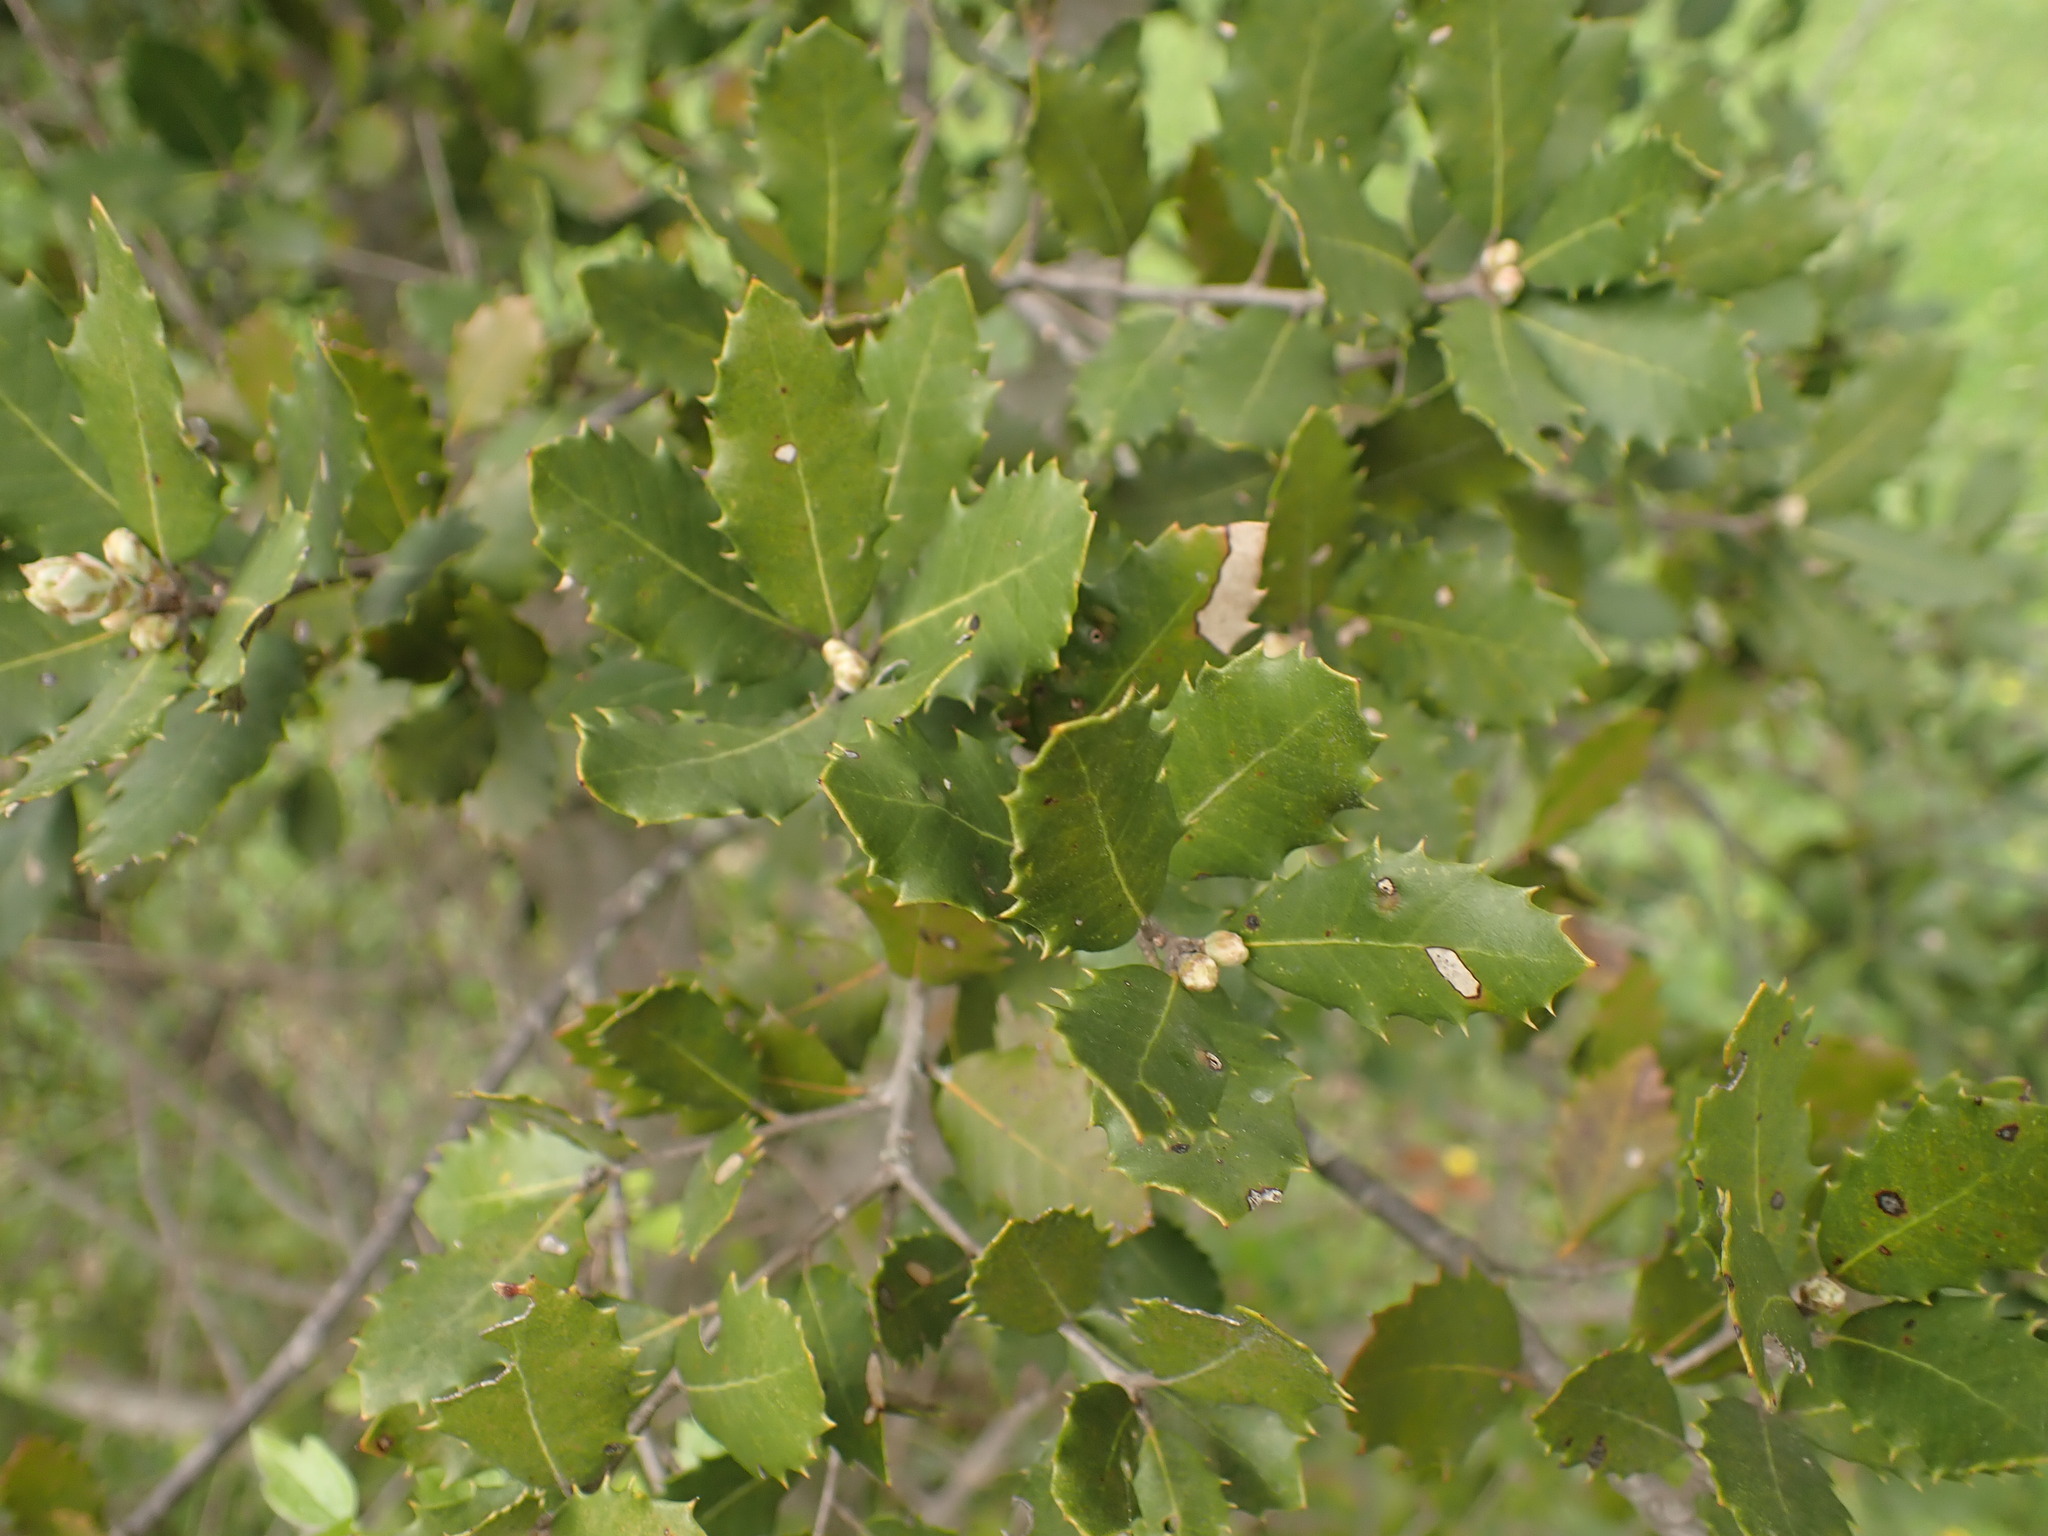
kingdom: Plantae
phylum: Tracheophyta
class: Magnoliopsida
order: Fagales
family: Fagaceae
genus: Quercus
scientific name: Quercus ilex
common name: Evergreen oak
